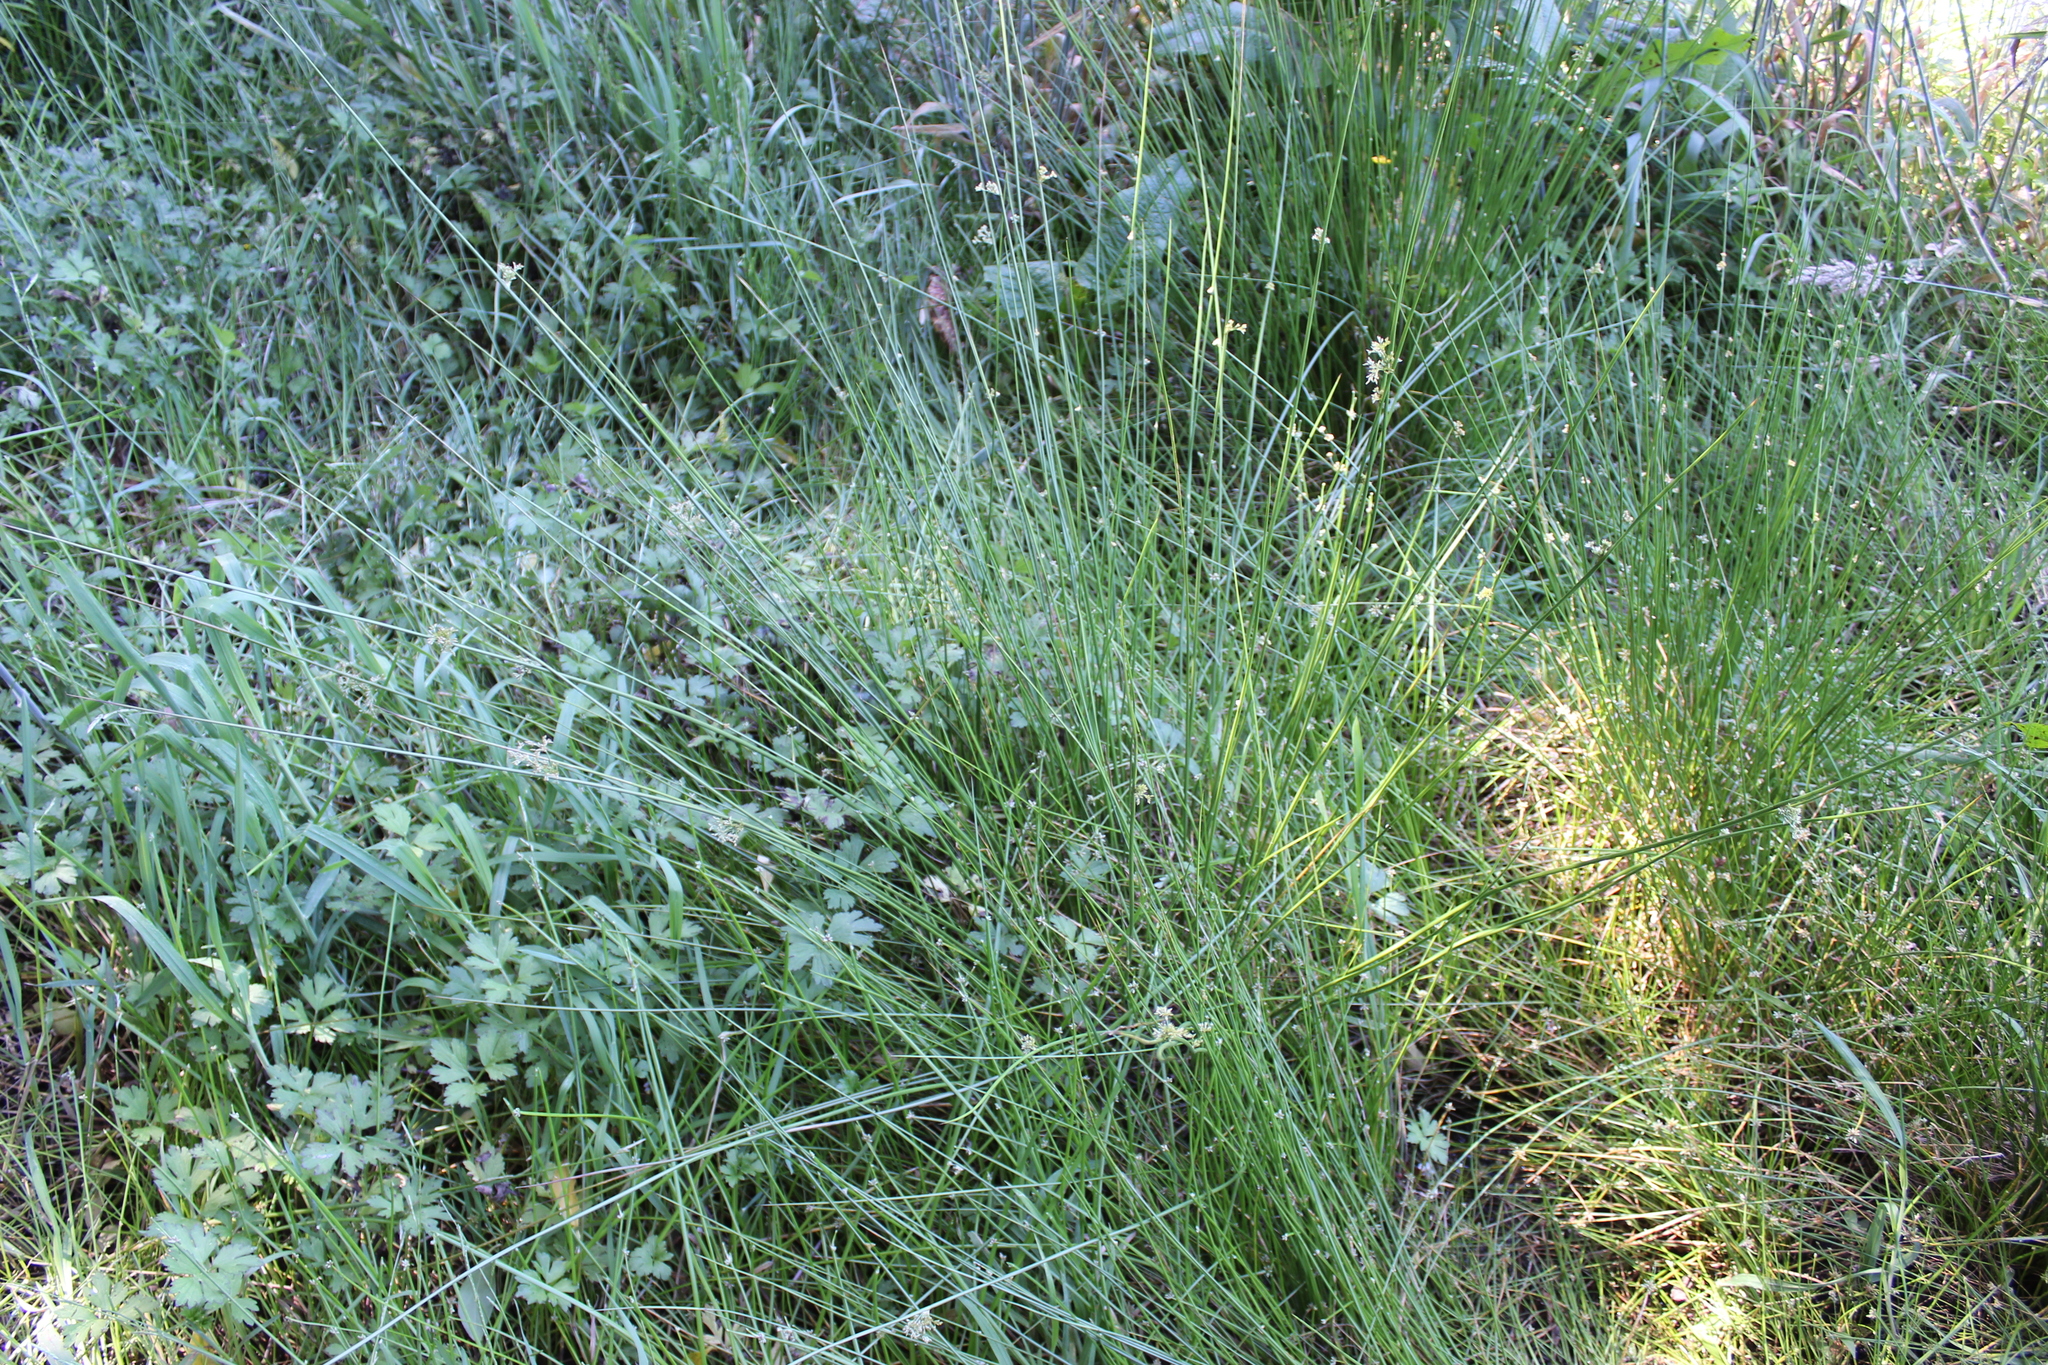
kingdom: Plantae
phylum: Tracheophyta
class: Liliopsida
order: Poales
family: Juncaceae
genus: Juncus
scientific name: Juncus effusus
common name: Soft rush
